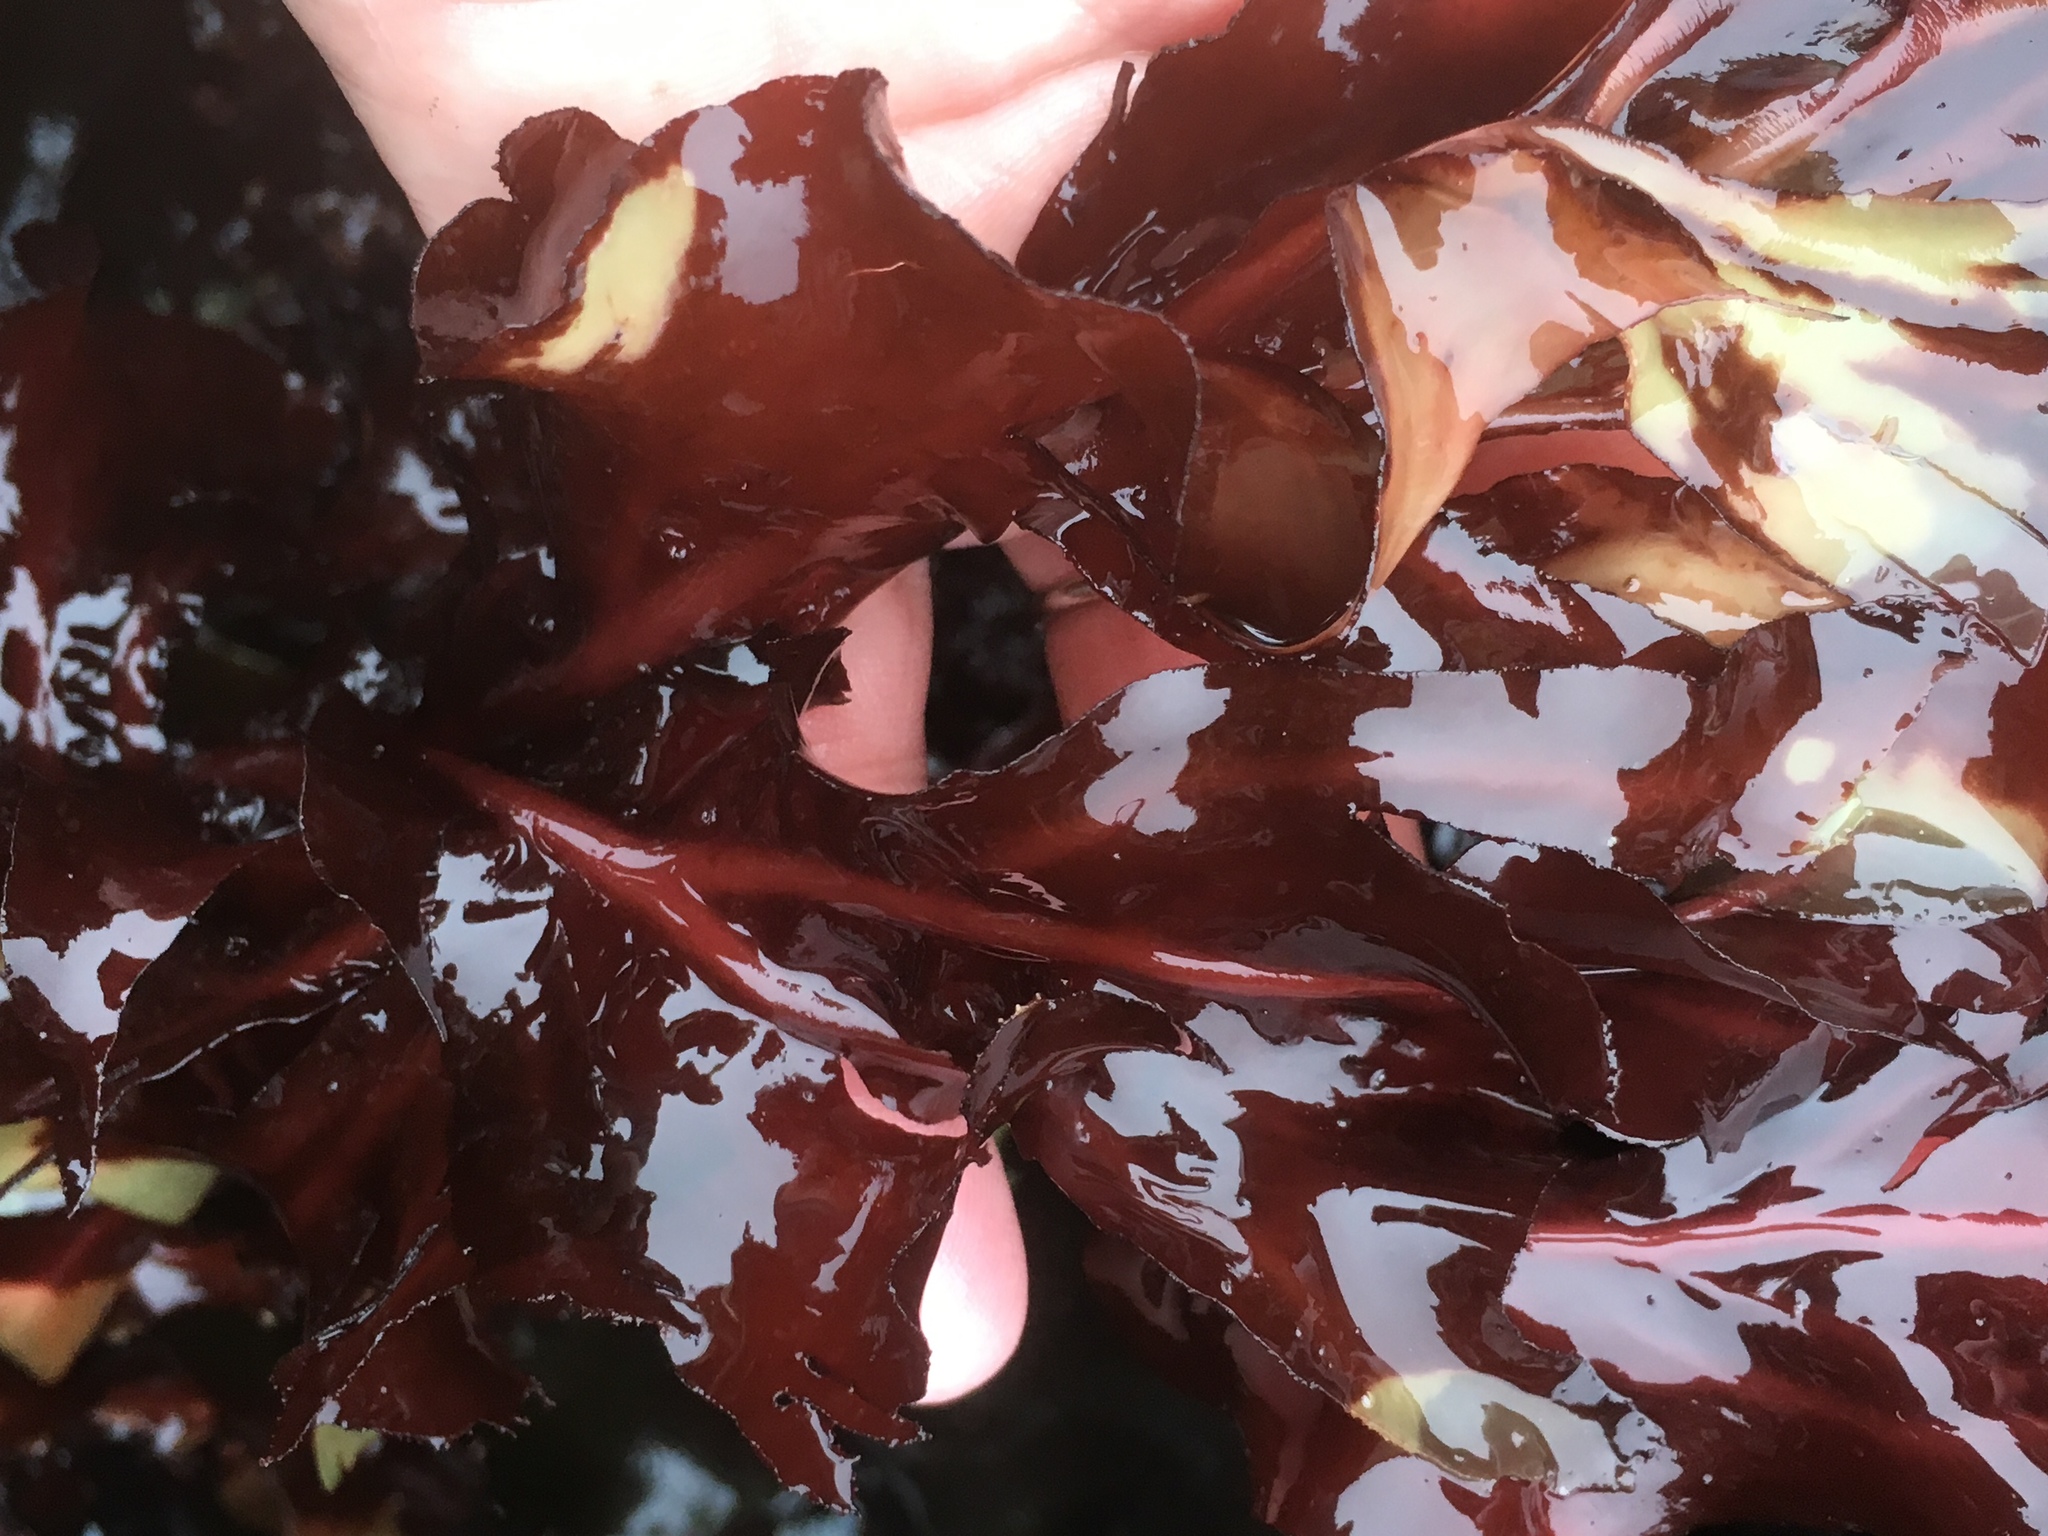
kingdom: Plantae
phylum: Rhodophyta
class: Florideophyceae
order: Gigartinales
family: Kallymeniaceae
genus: Erythrophyllum
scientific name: Erythrophyllum delesserioides
